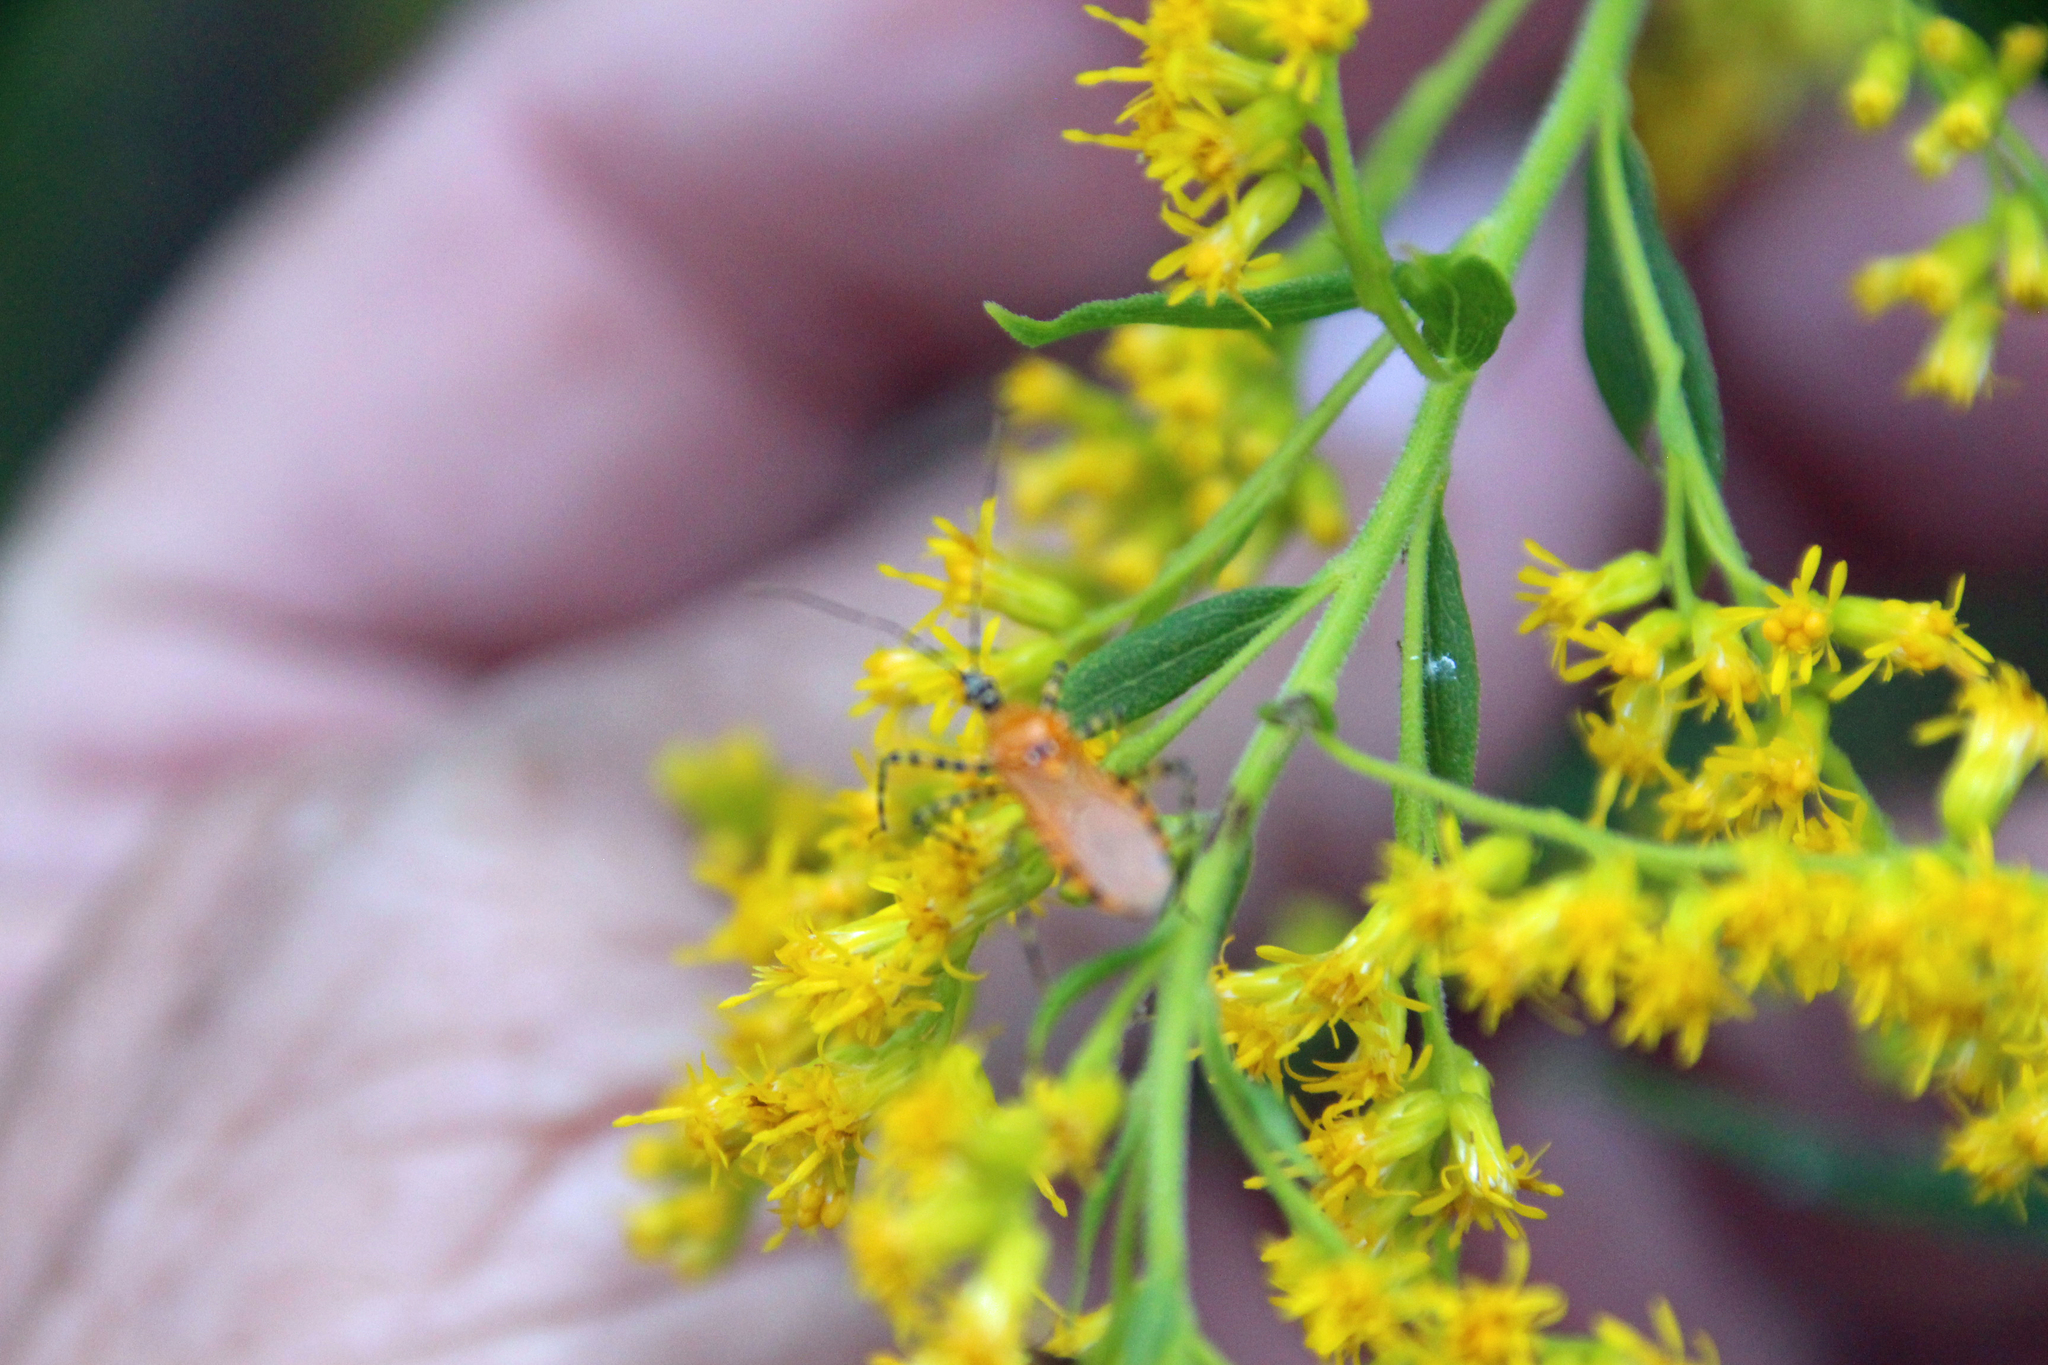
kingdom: Animalia
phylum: Arthropoda
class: Insecta
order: Hemiptera
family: Reduviidae
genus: Pselliopus
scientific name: Pselliopus barberi
